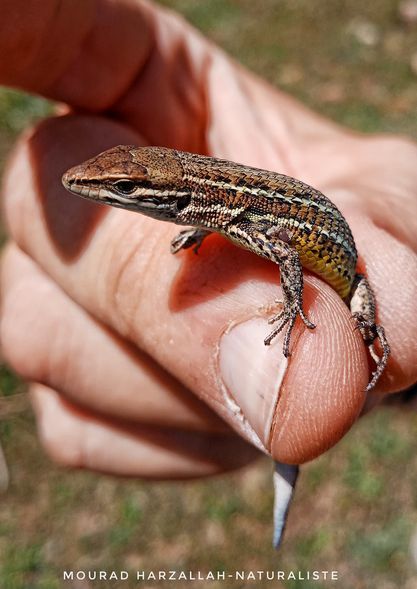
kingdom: Animalia
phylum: Chordata
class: Squamata
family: Lacertidae
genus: Psammodromus
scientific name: Psammodromus blanci
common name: Blank's psammodromus
